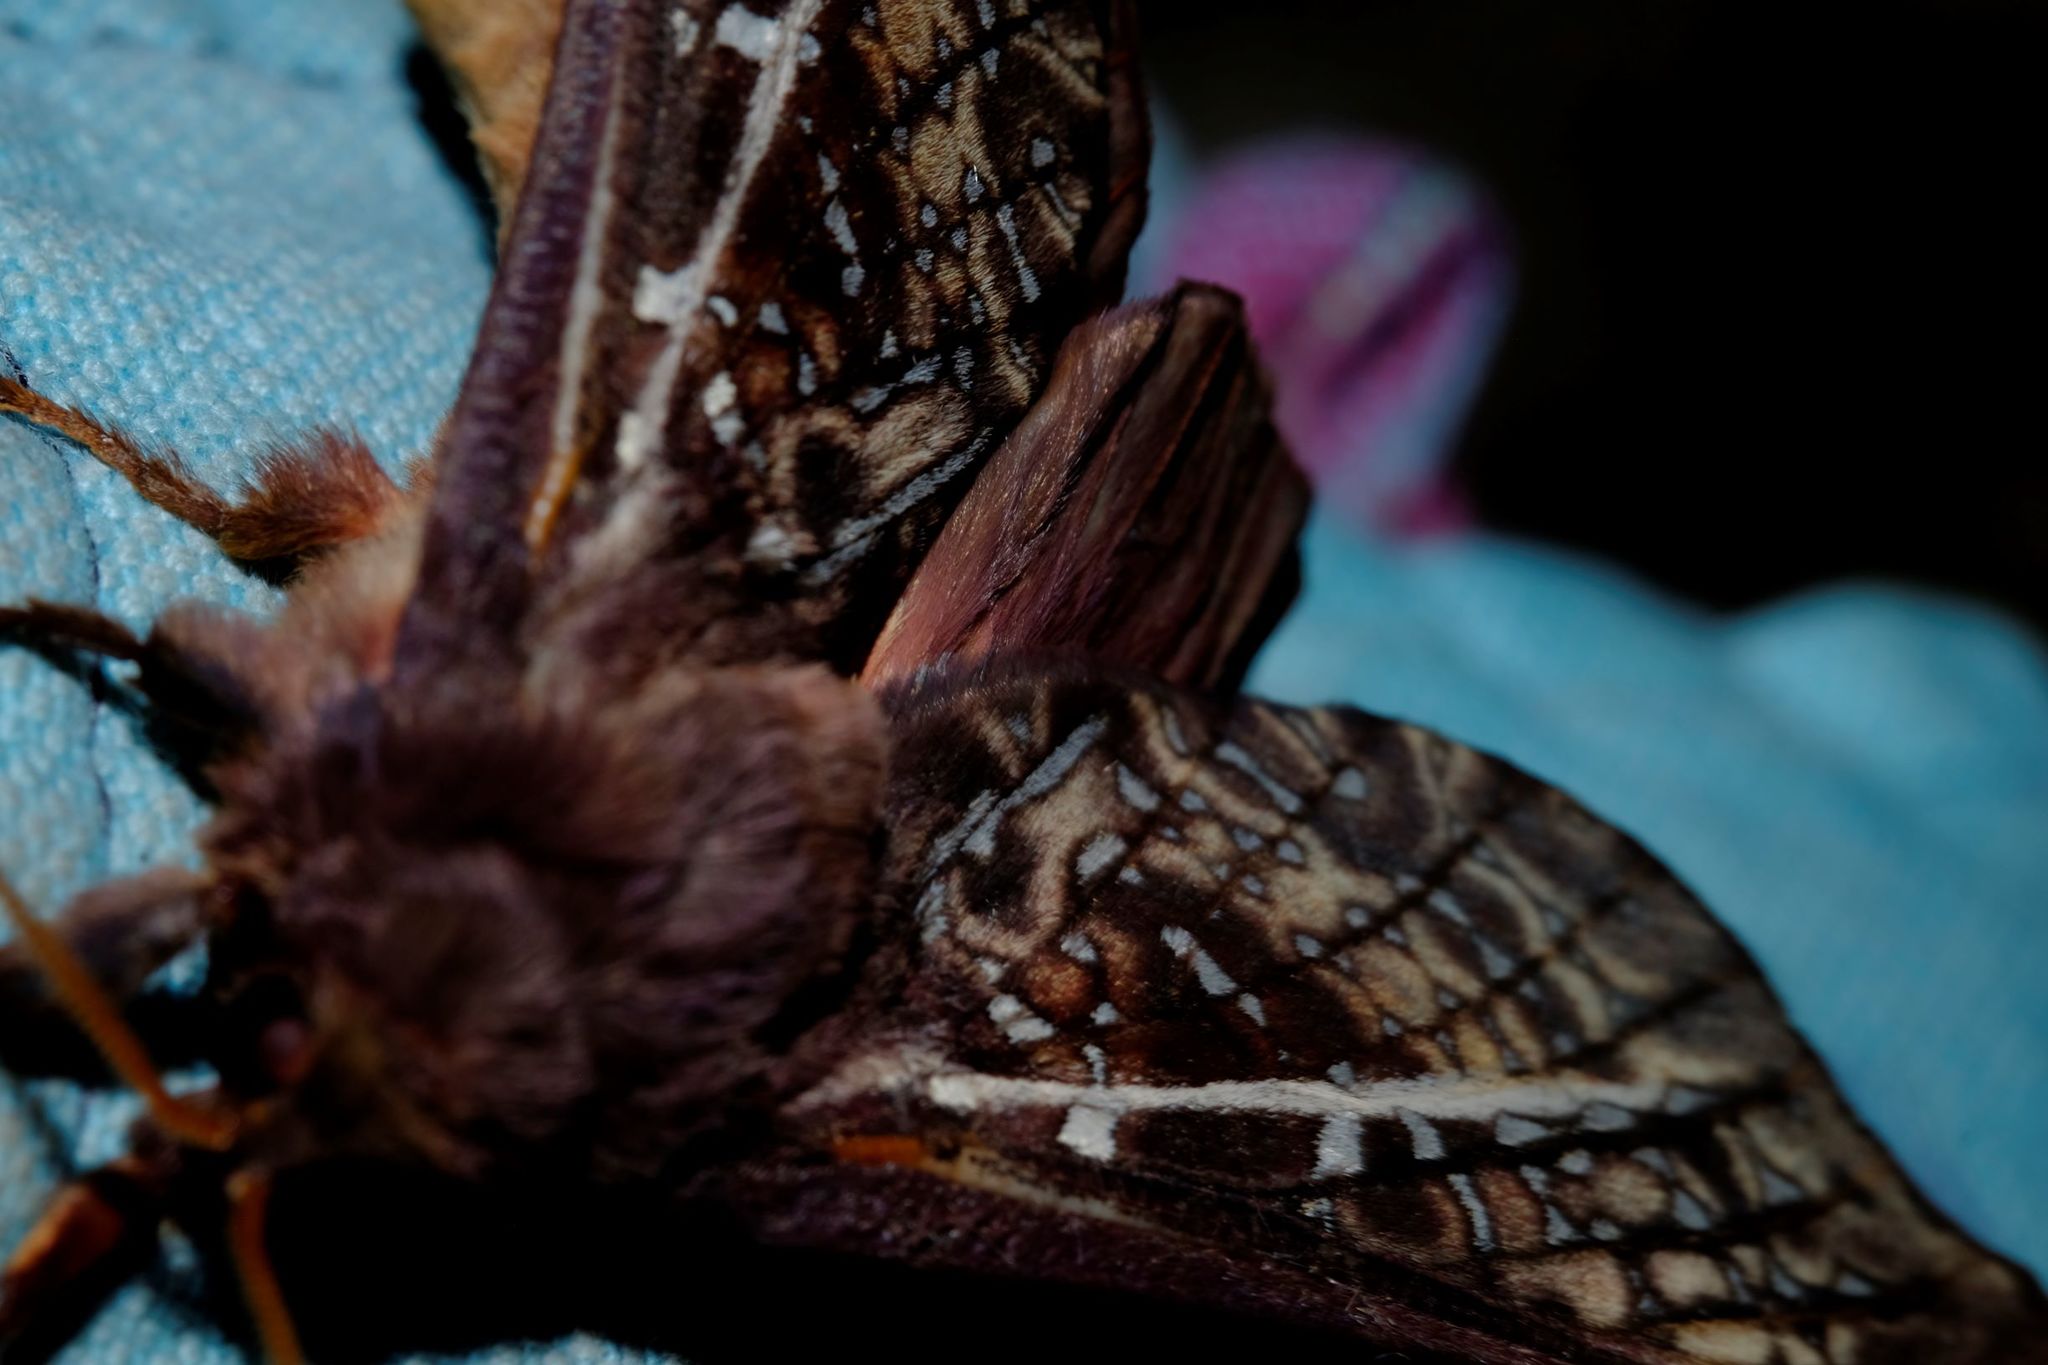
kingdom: Animalia
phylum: Arthropoda
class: Insecta
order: Lepidoptera
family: Hepialidae
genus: Oxycanus
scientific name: Oxycanus australis
